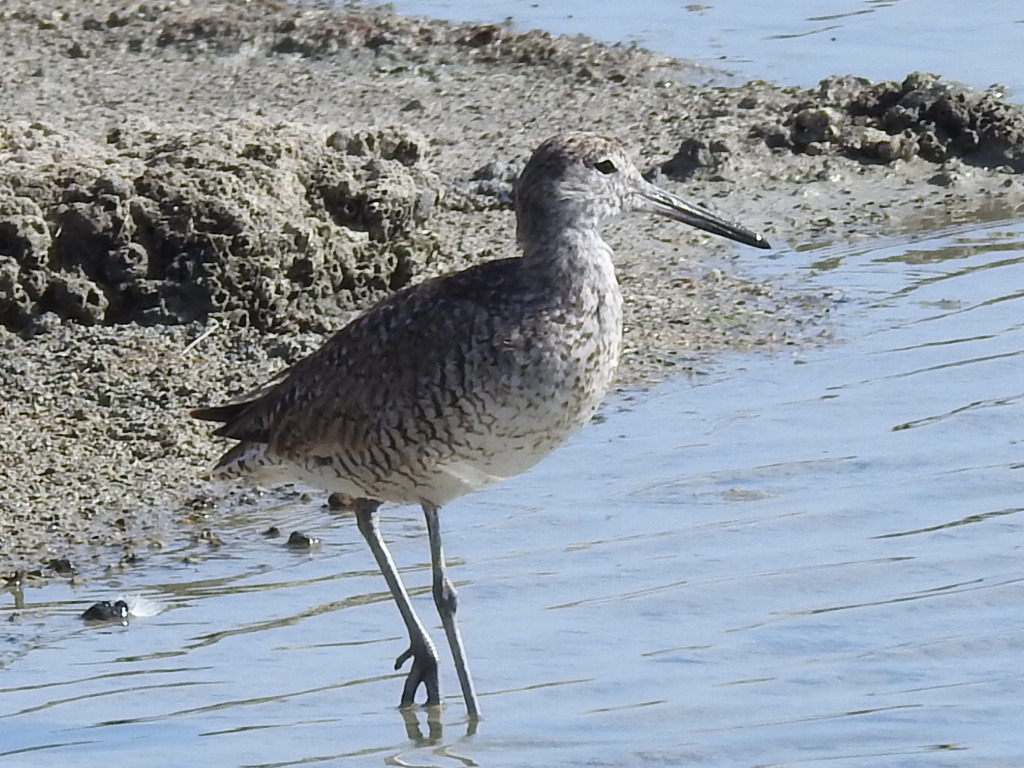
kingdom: Animalia
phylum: Chordata
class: Aves
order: Charadriiformes
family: Scolopacidae
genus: Tringa
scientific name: Tringa semipalmata
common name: Willet
